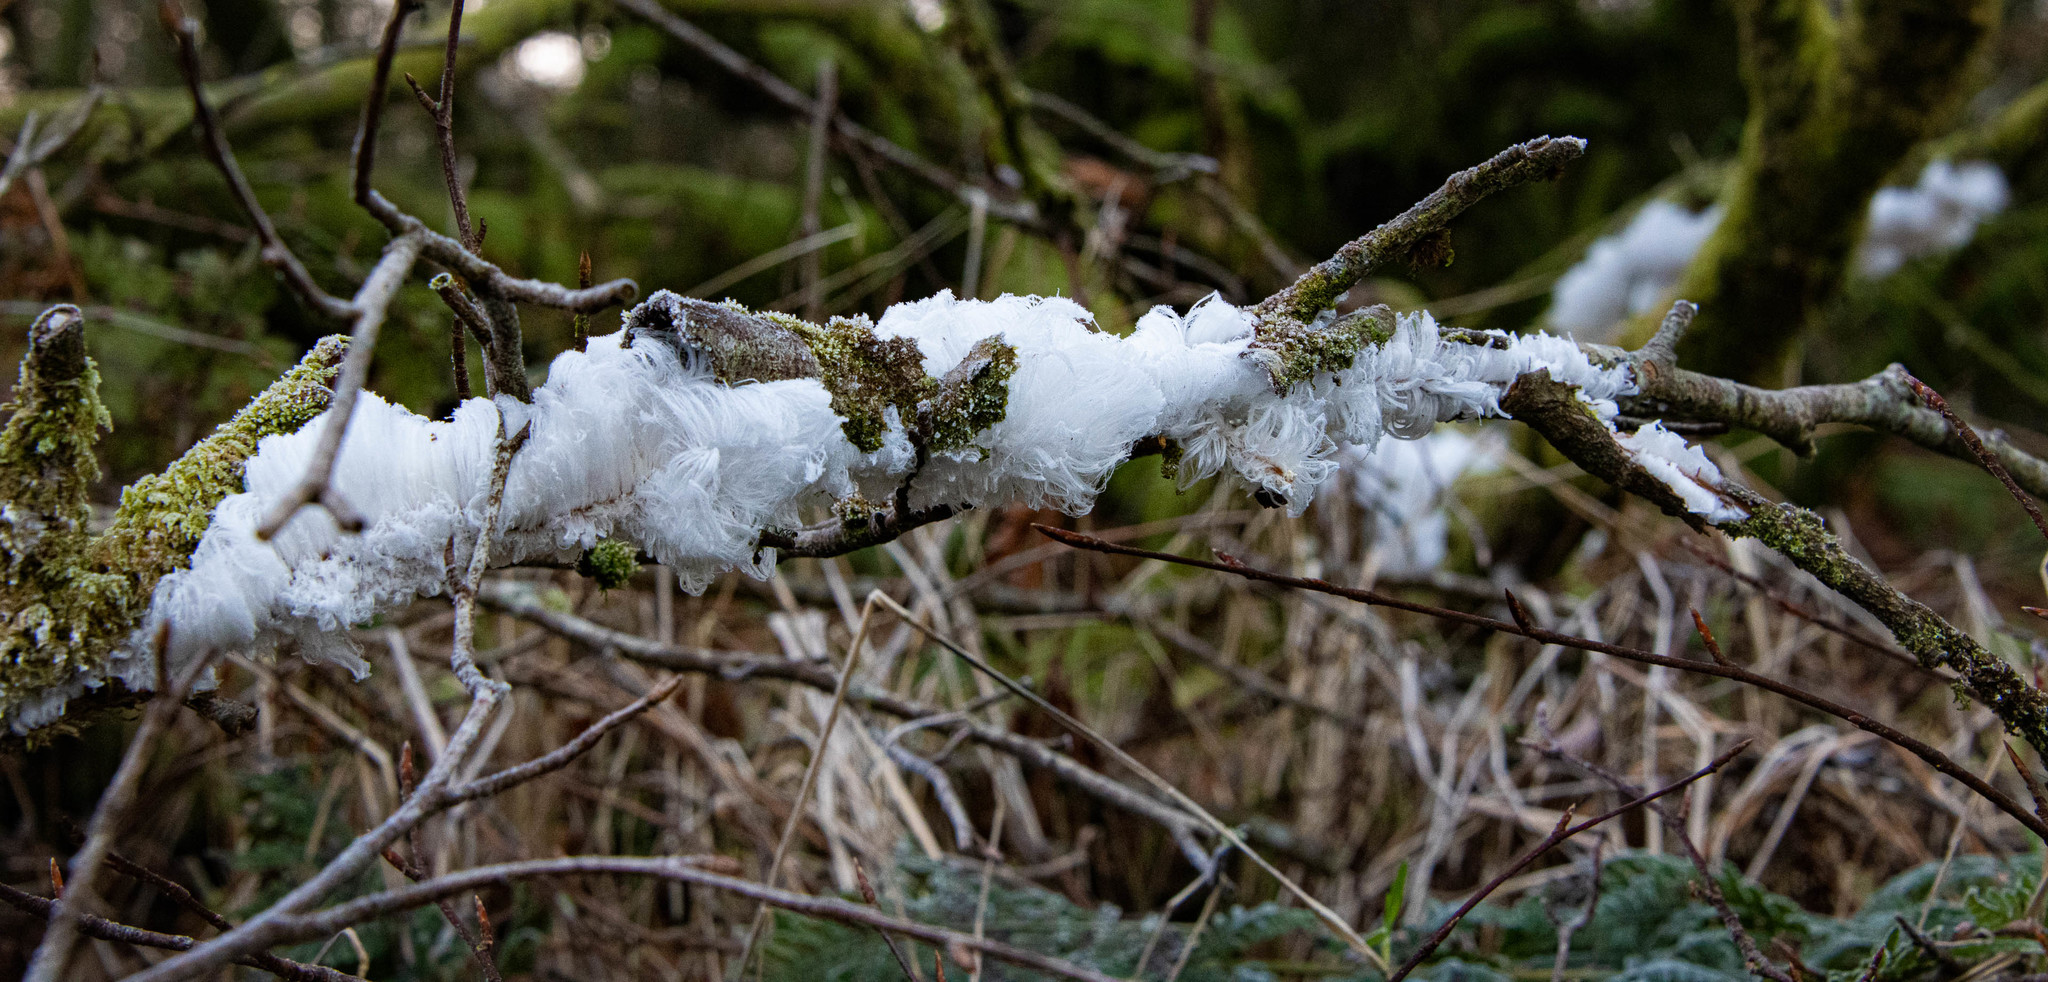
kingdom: Fungi
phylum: Basidiomycota
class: Agaricomycetes
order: Auriculariales
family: Auriculariaceae
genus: Exidiopsis
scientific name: Exidiopsis effusa
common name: Hair ice crust
